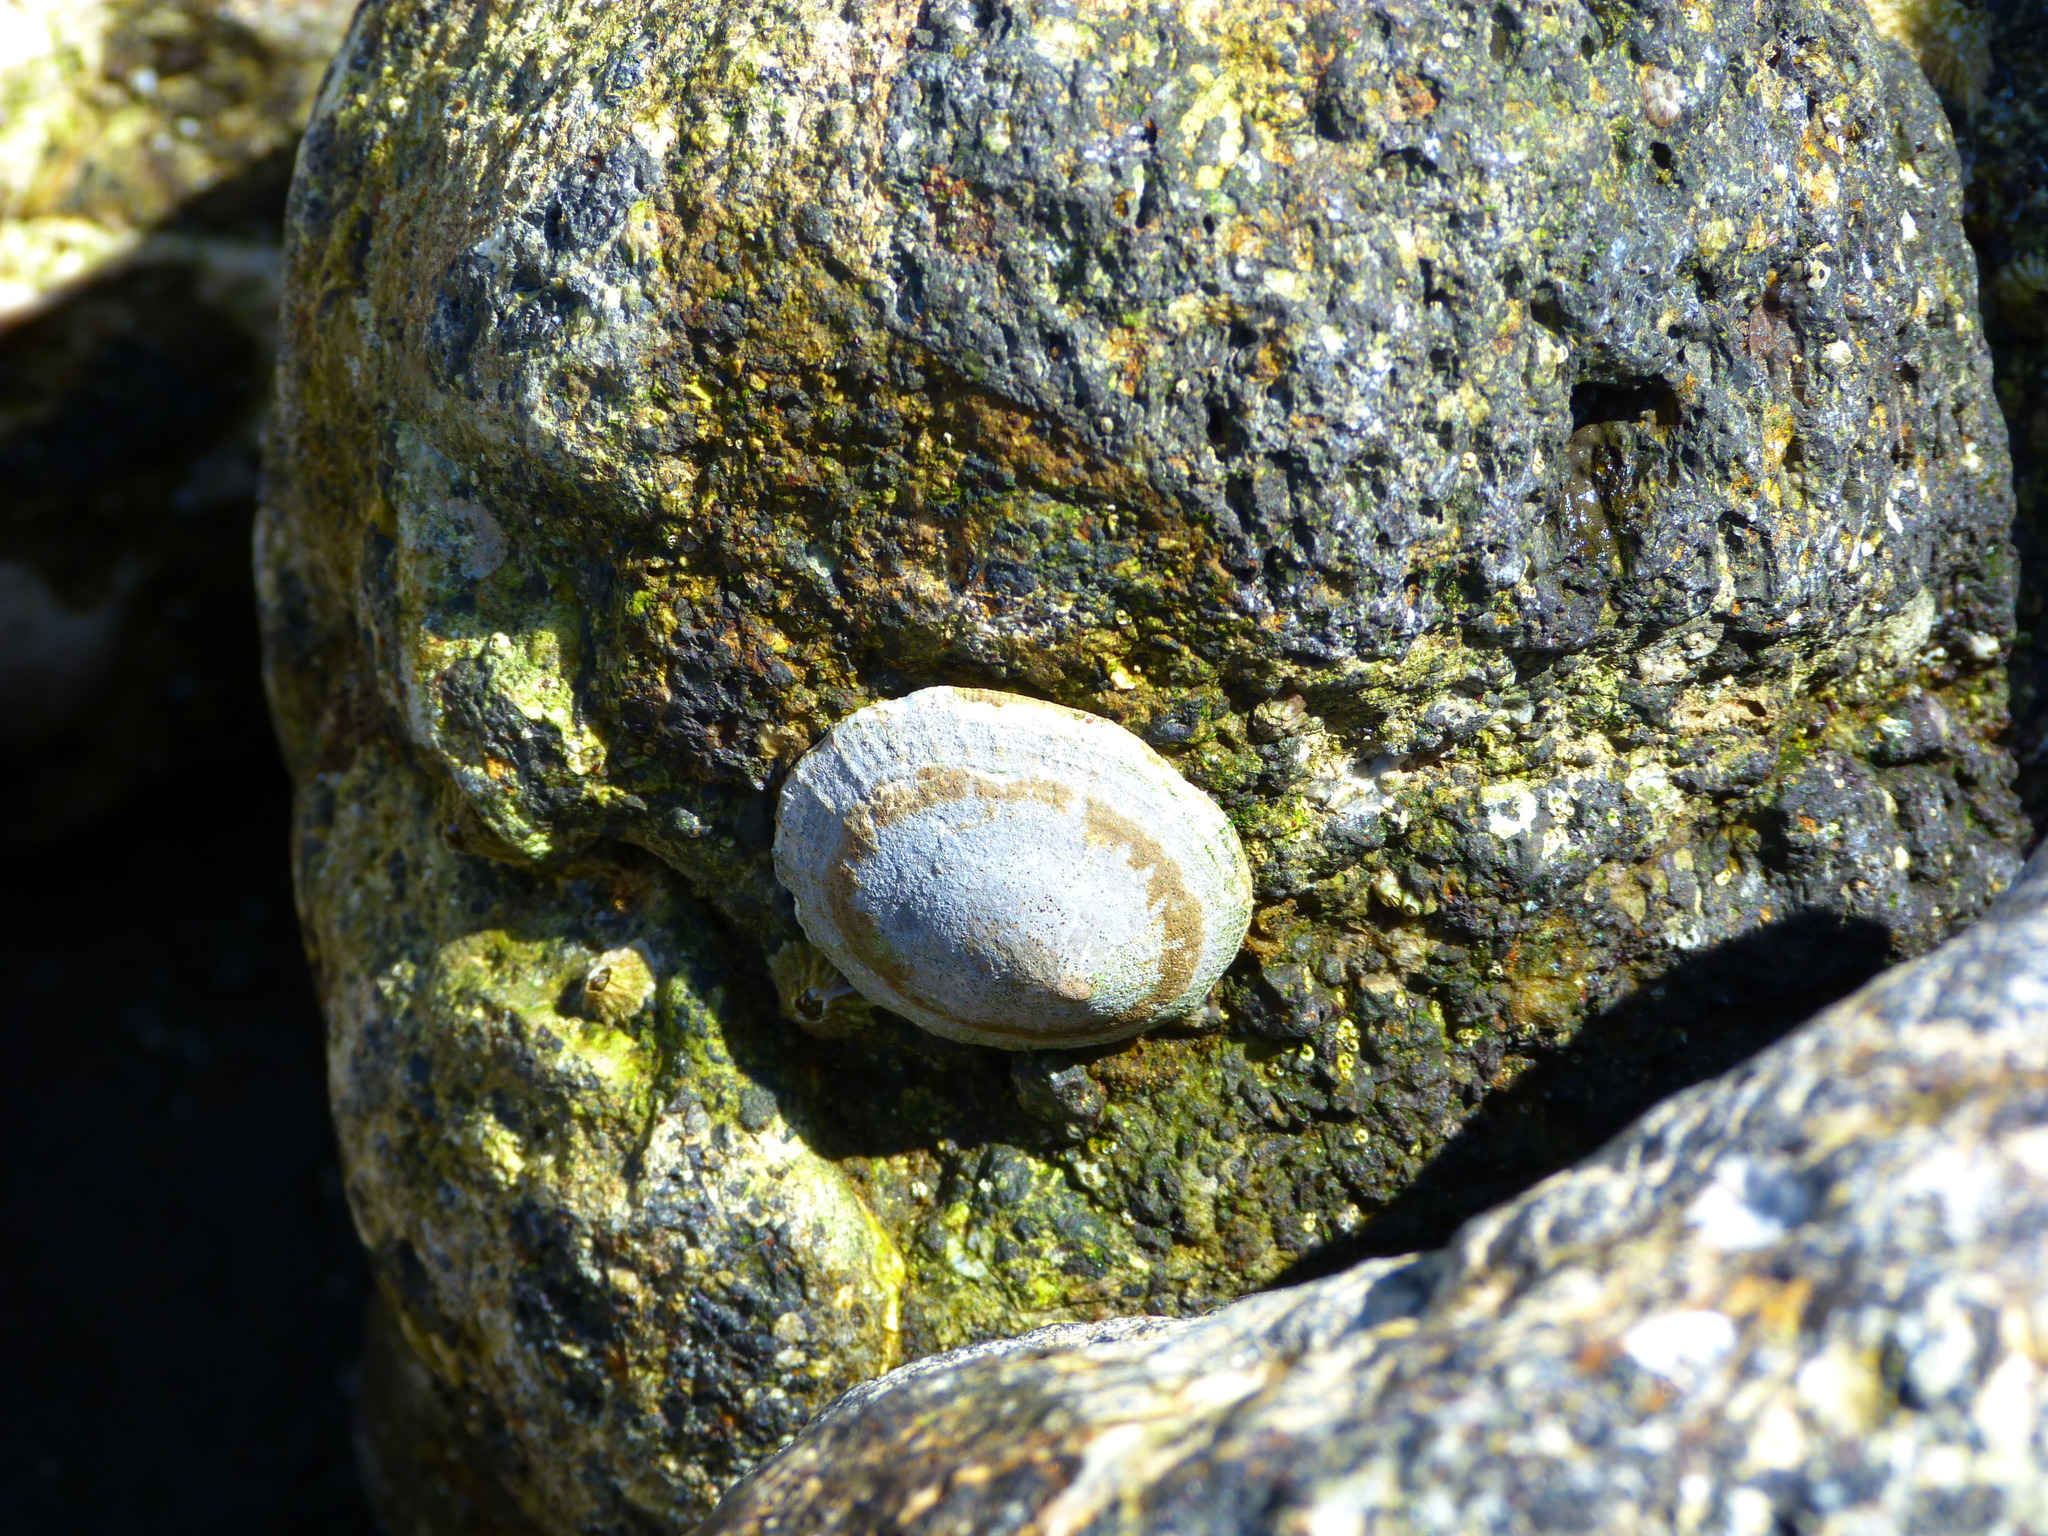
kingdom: Animalia
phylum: Mollusca
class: Gastropoda
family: Lottiidae
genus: Lottia
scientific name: Lottia limatula
